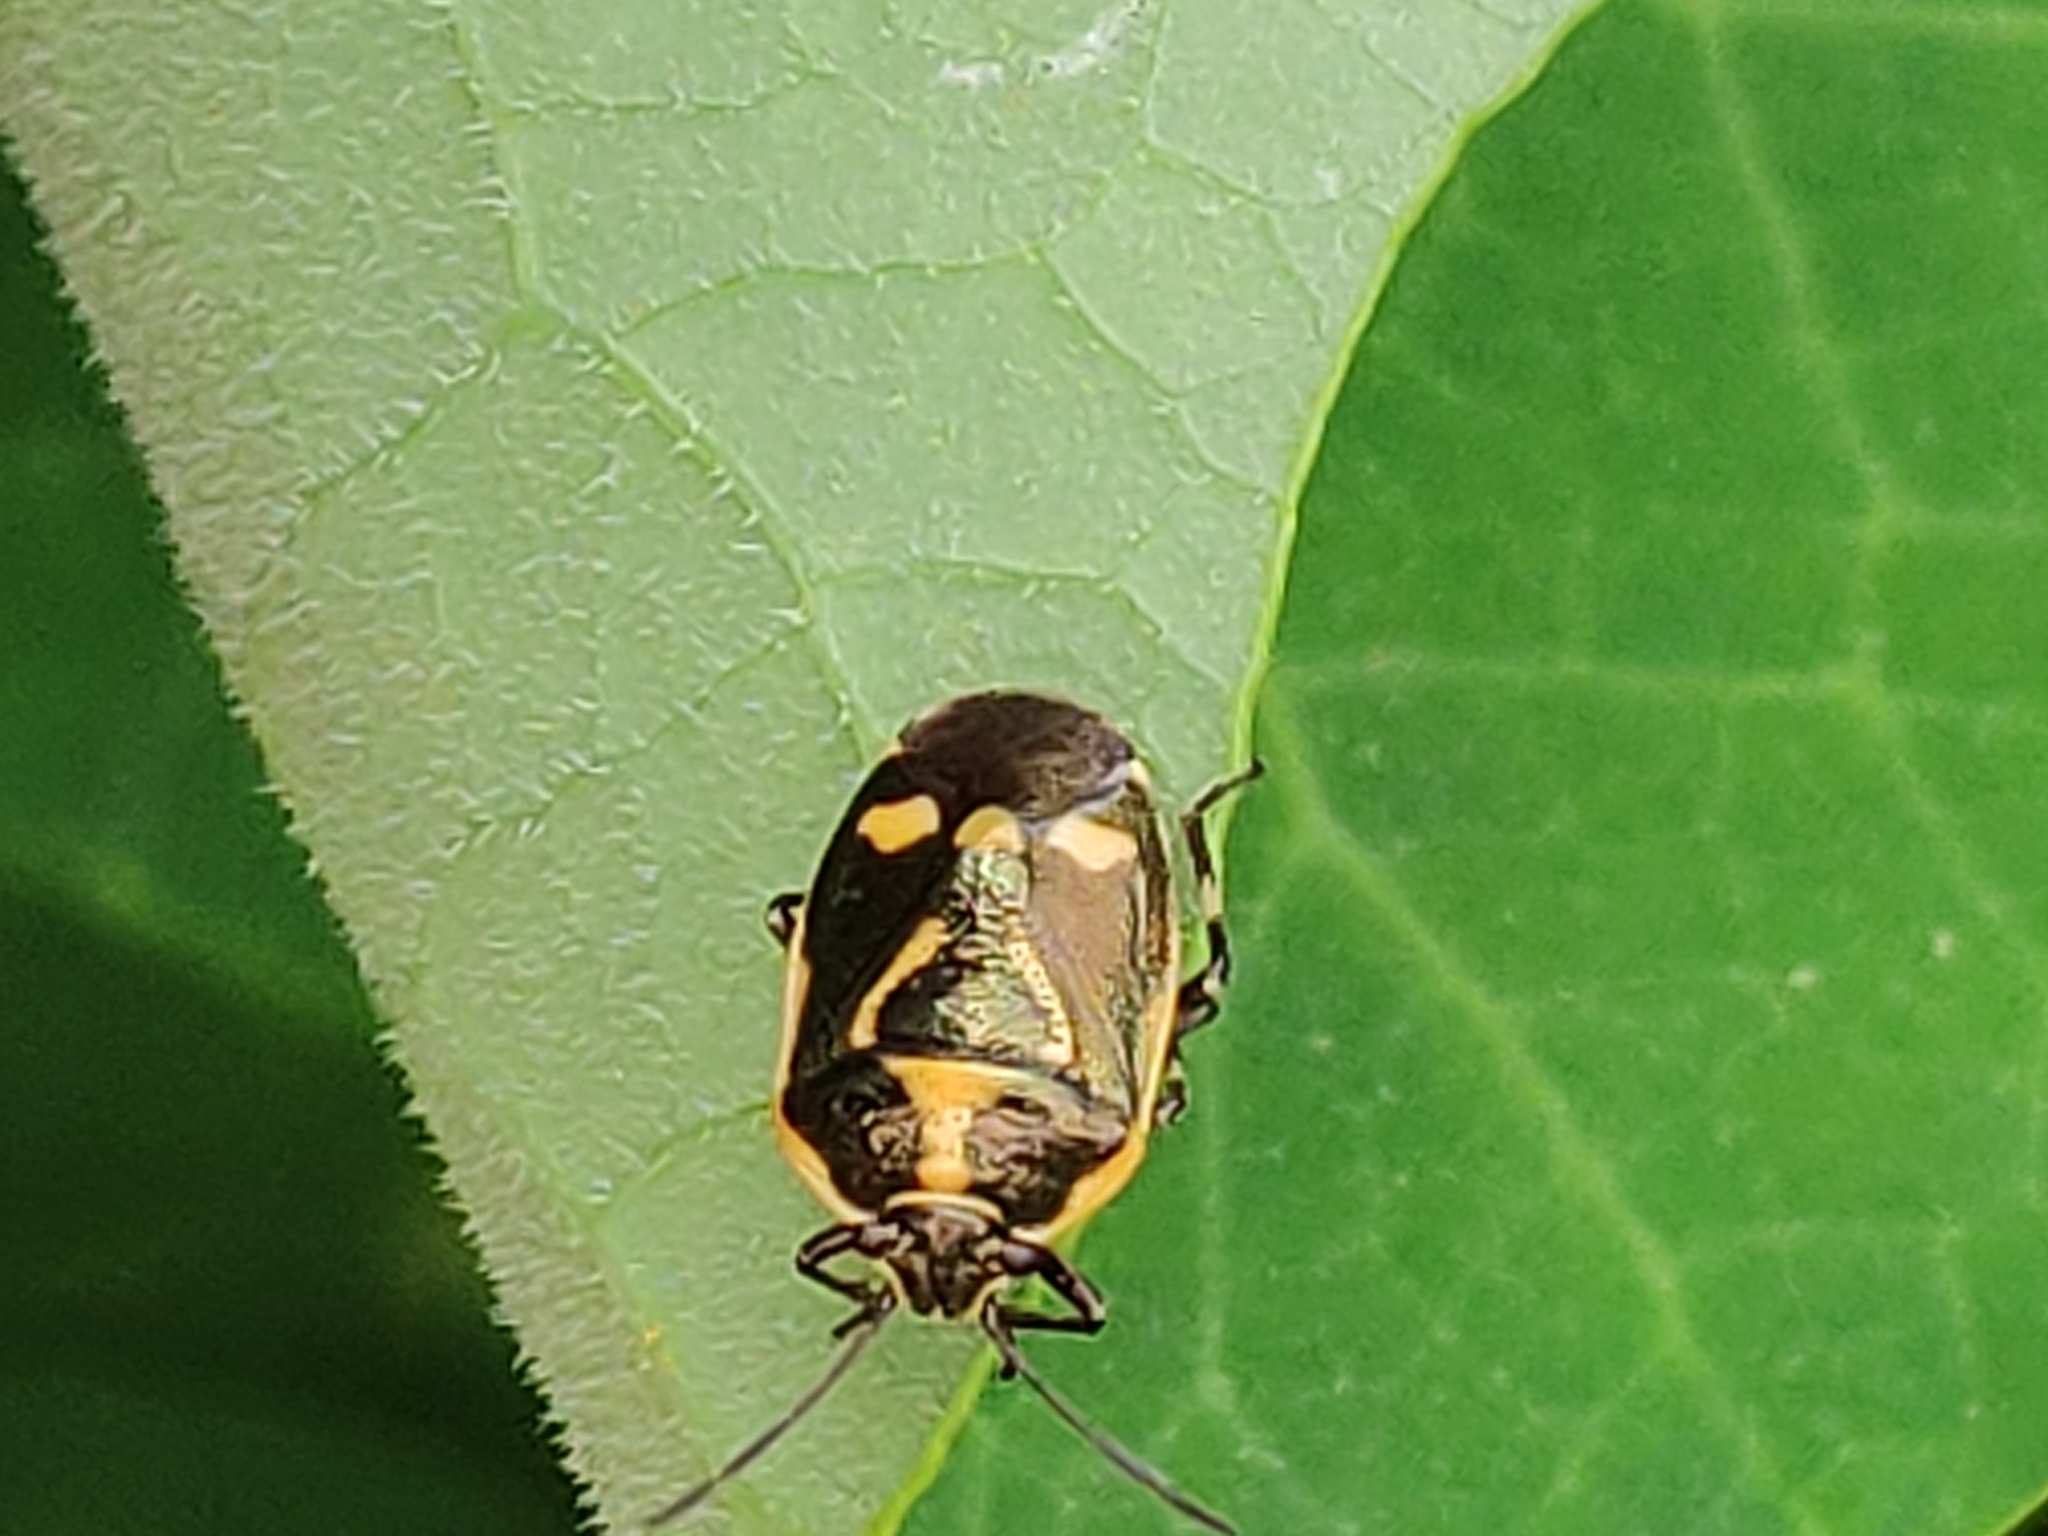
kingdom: Animalia
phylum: Arthropoda
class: Insecta
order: Hemiptera
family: Pentatomidae
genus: Eurydema
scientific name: Eurydema oleracea
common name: Cabbage bug
